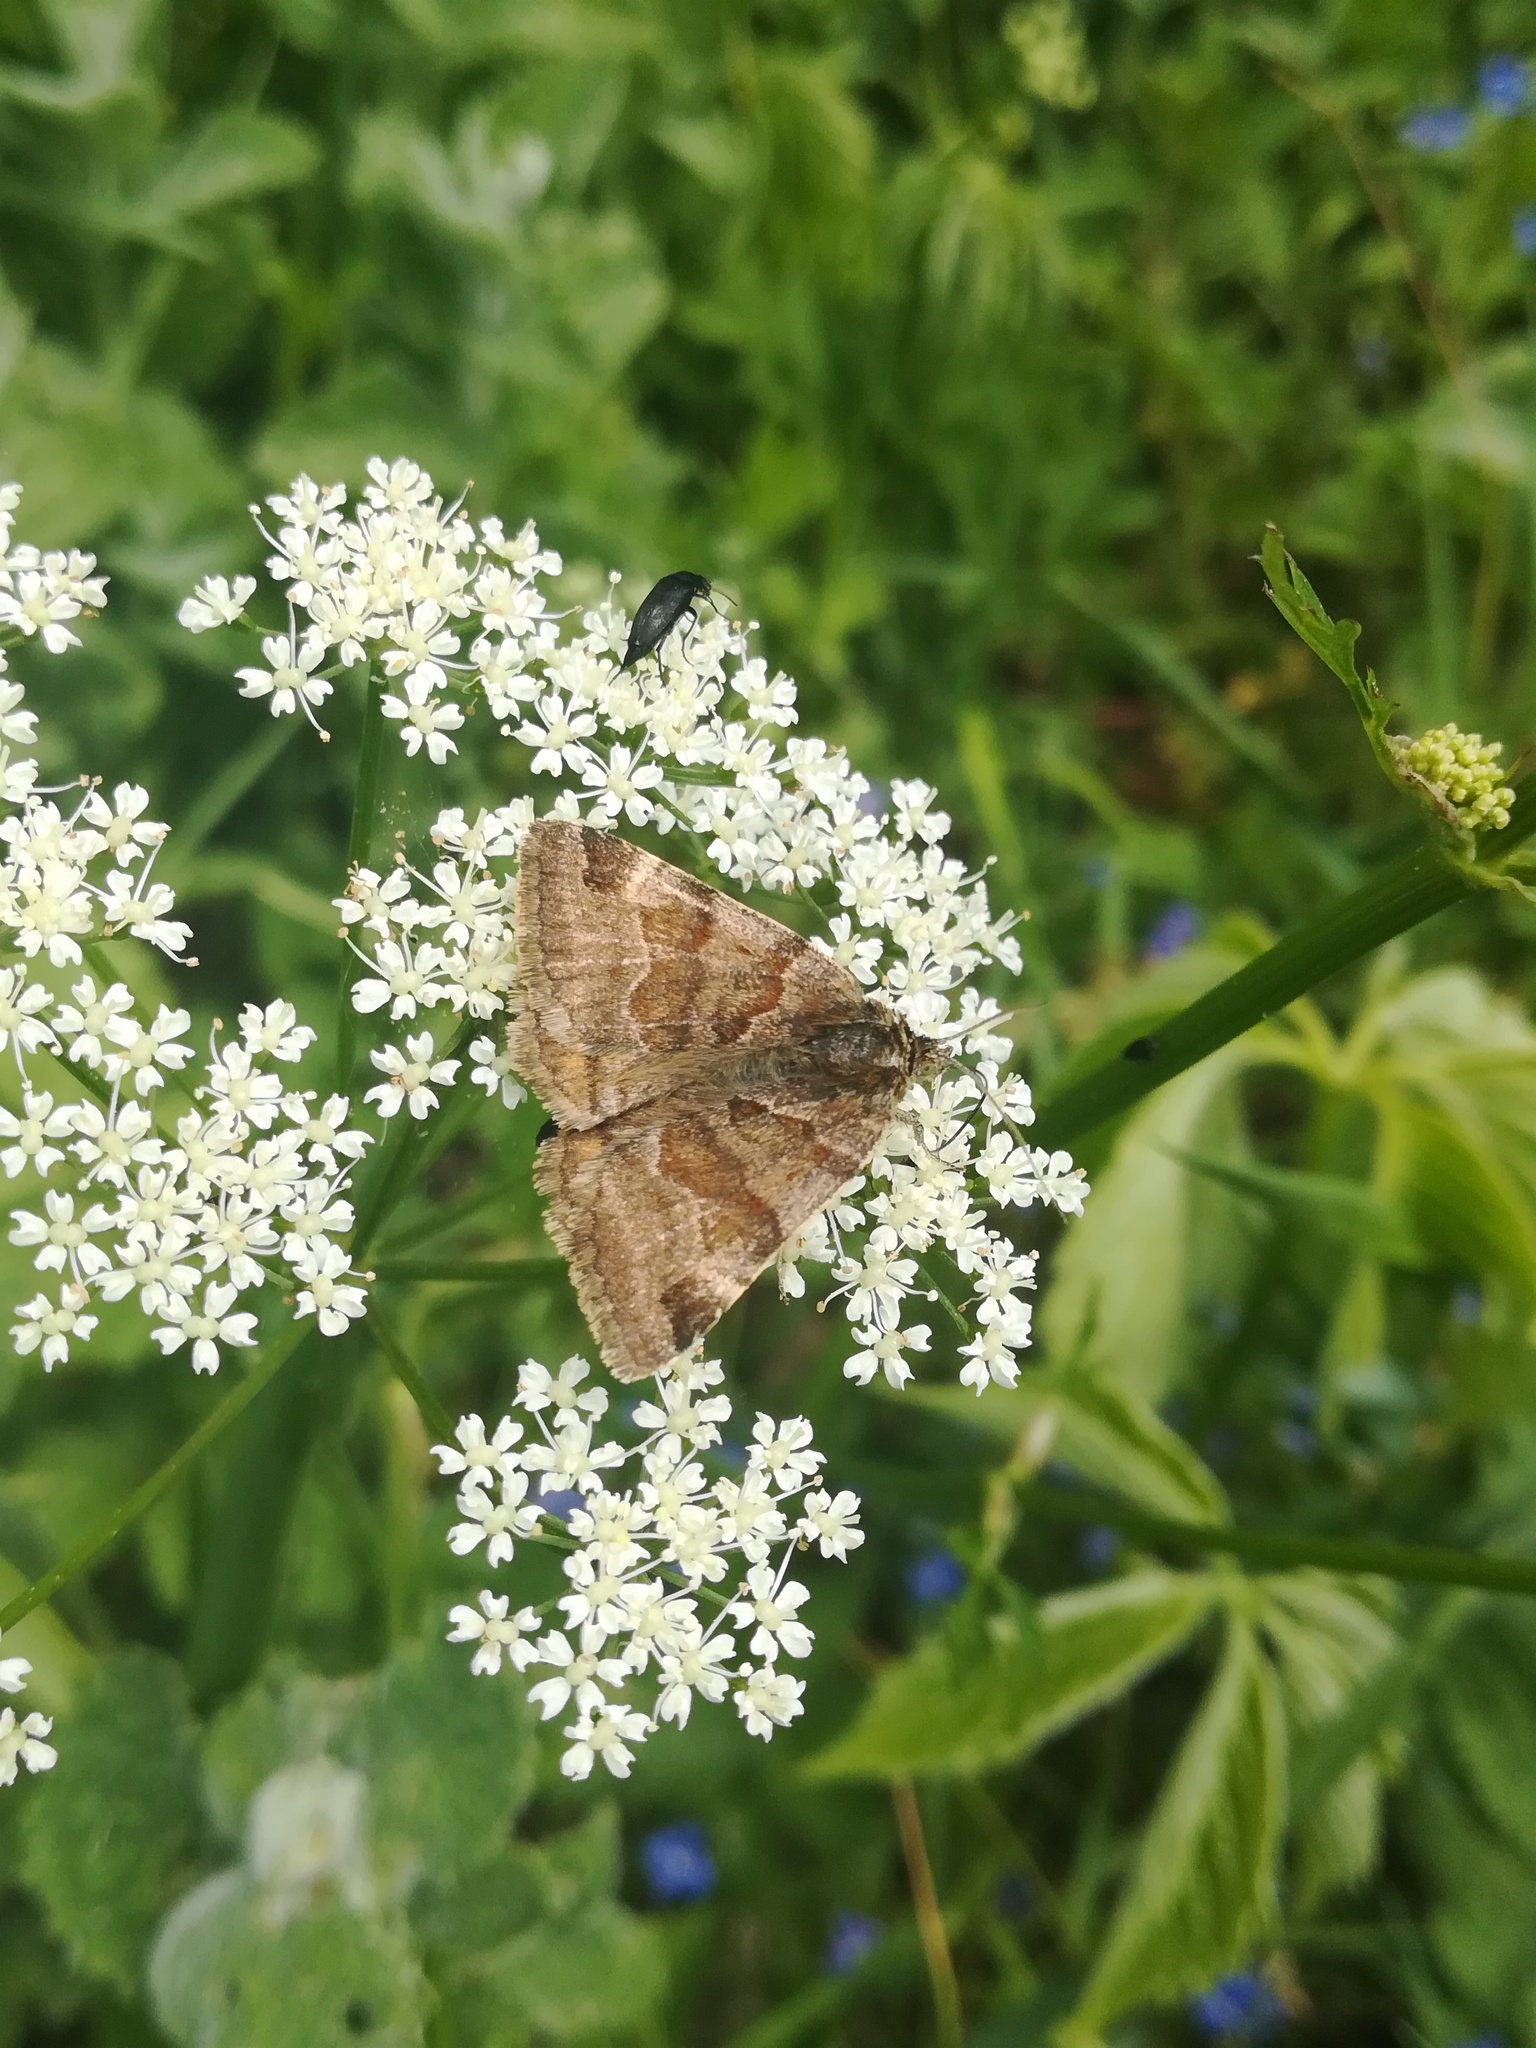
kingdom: Animalia
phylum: Arthropoda
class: Insecta
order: Lepidoptera
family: Erebidae
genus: Euclidia
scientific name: Euclidia glyphica
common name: Burnet companion
